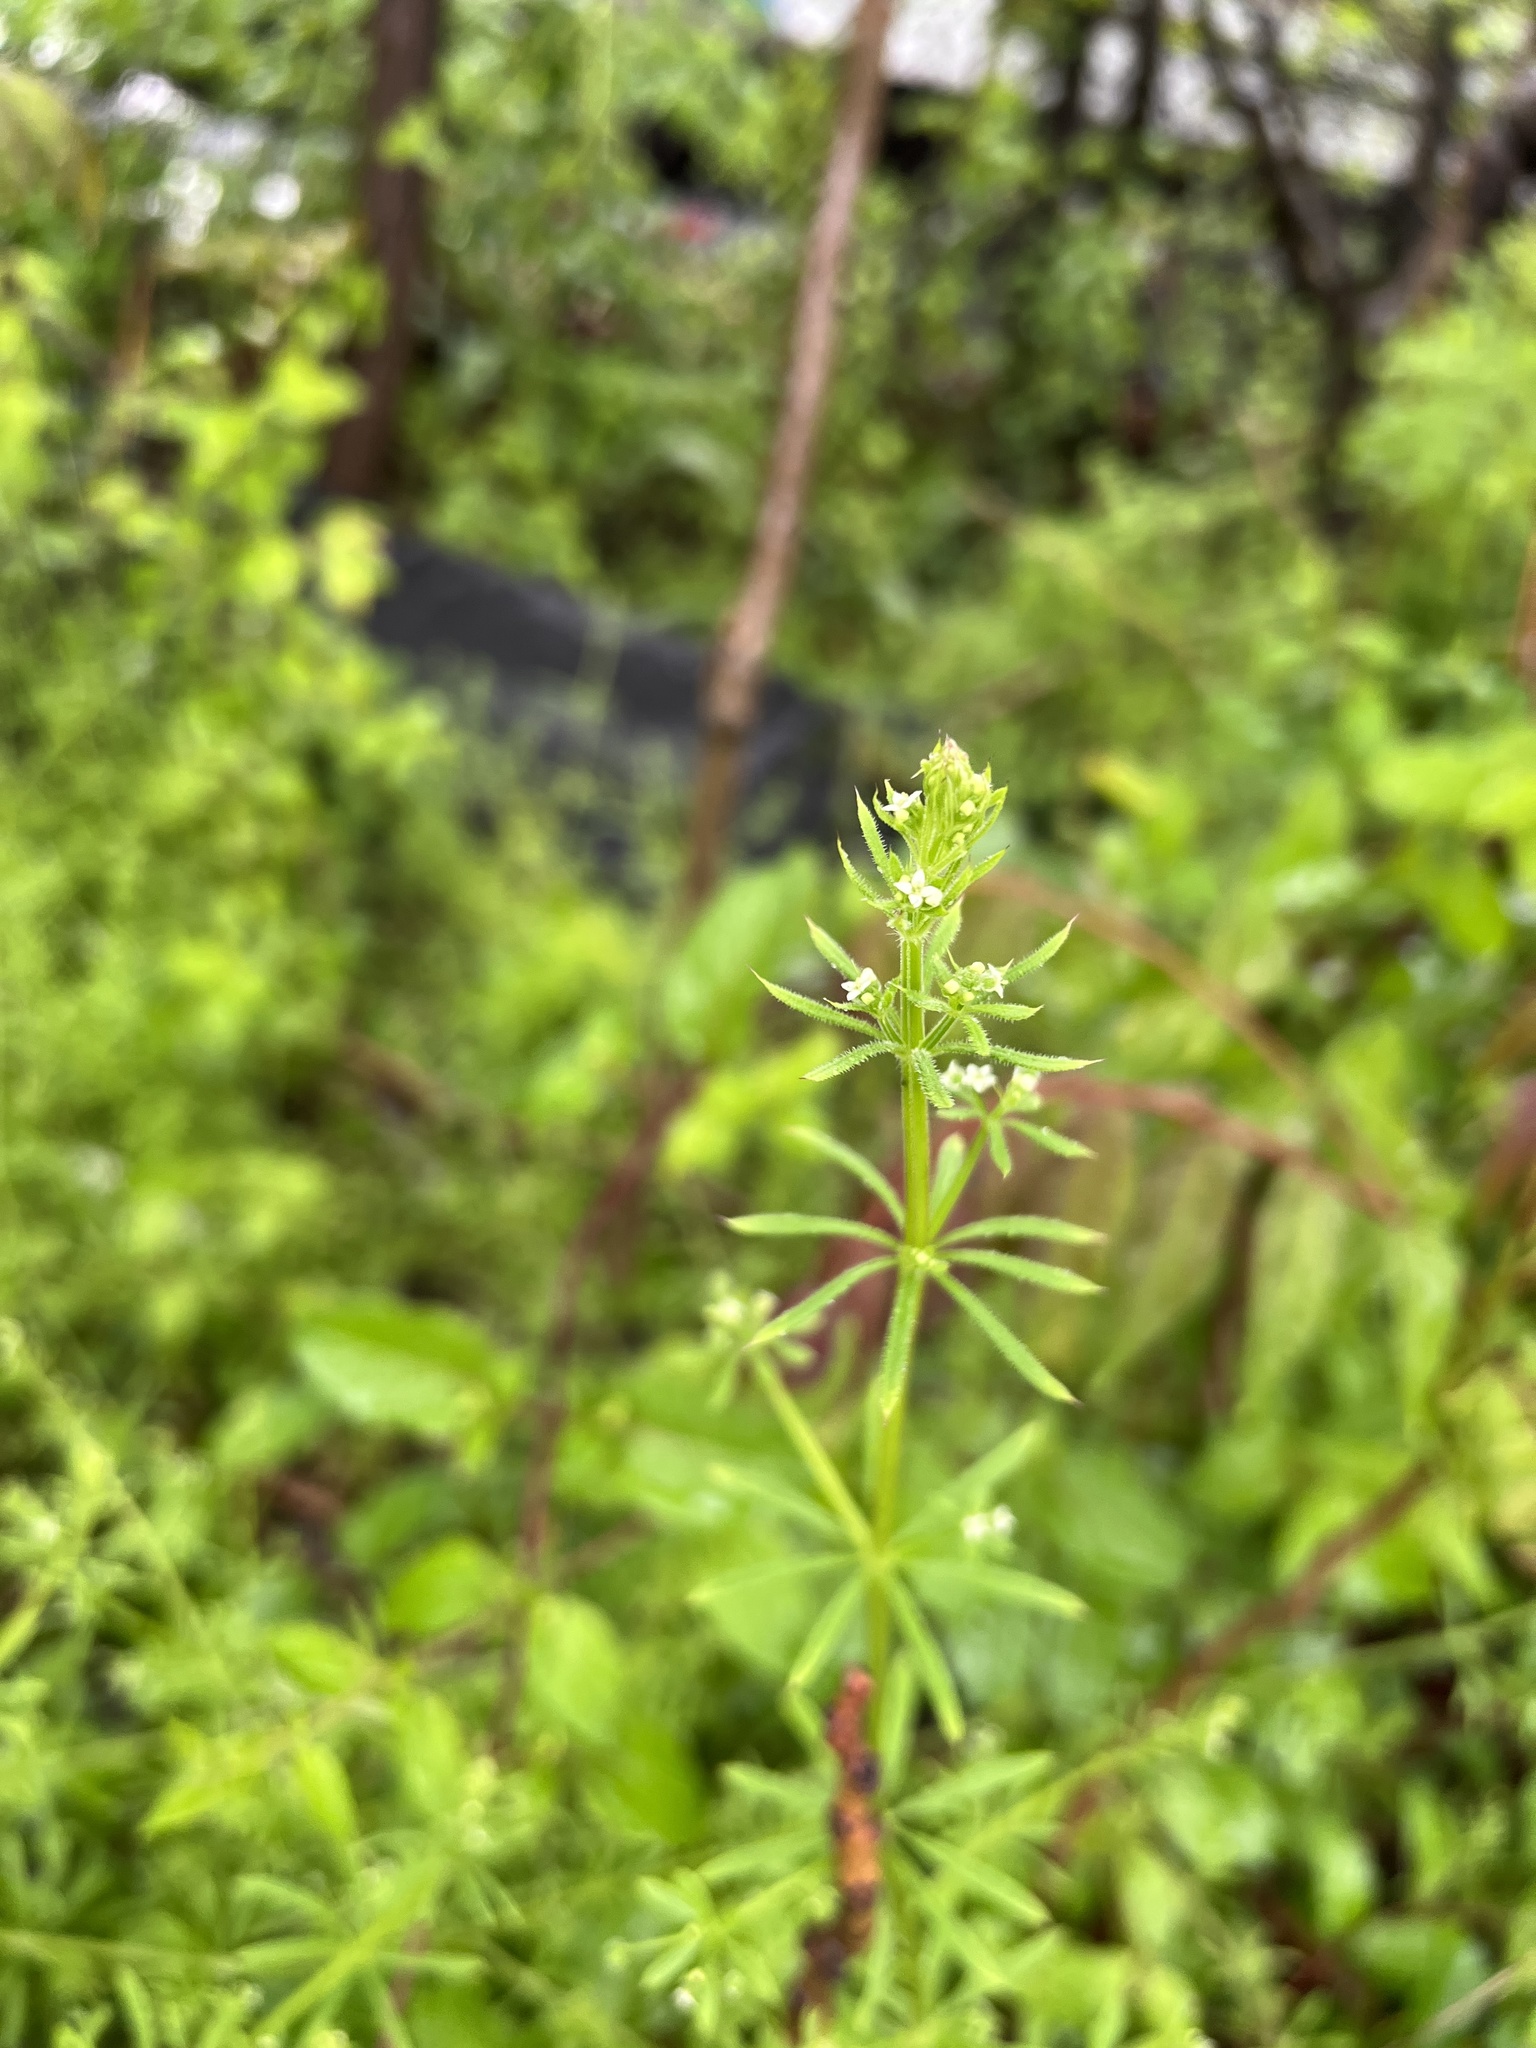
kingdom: Plantae
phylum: Tracheophyta
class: Magnoliopsida
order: Gentianales
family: Rubiaceae
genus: Galium
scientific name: Galium aparine
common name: Cleavers
